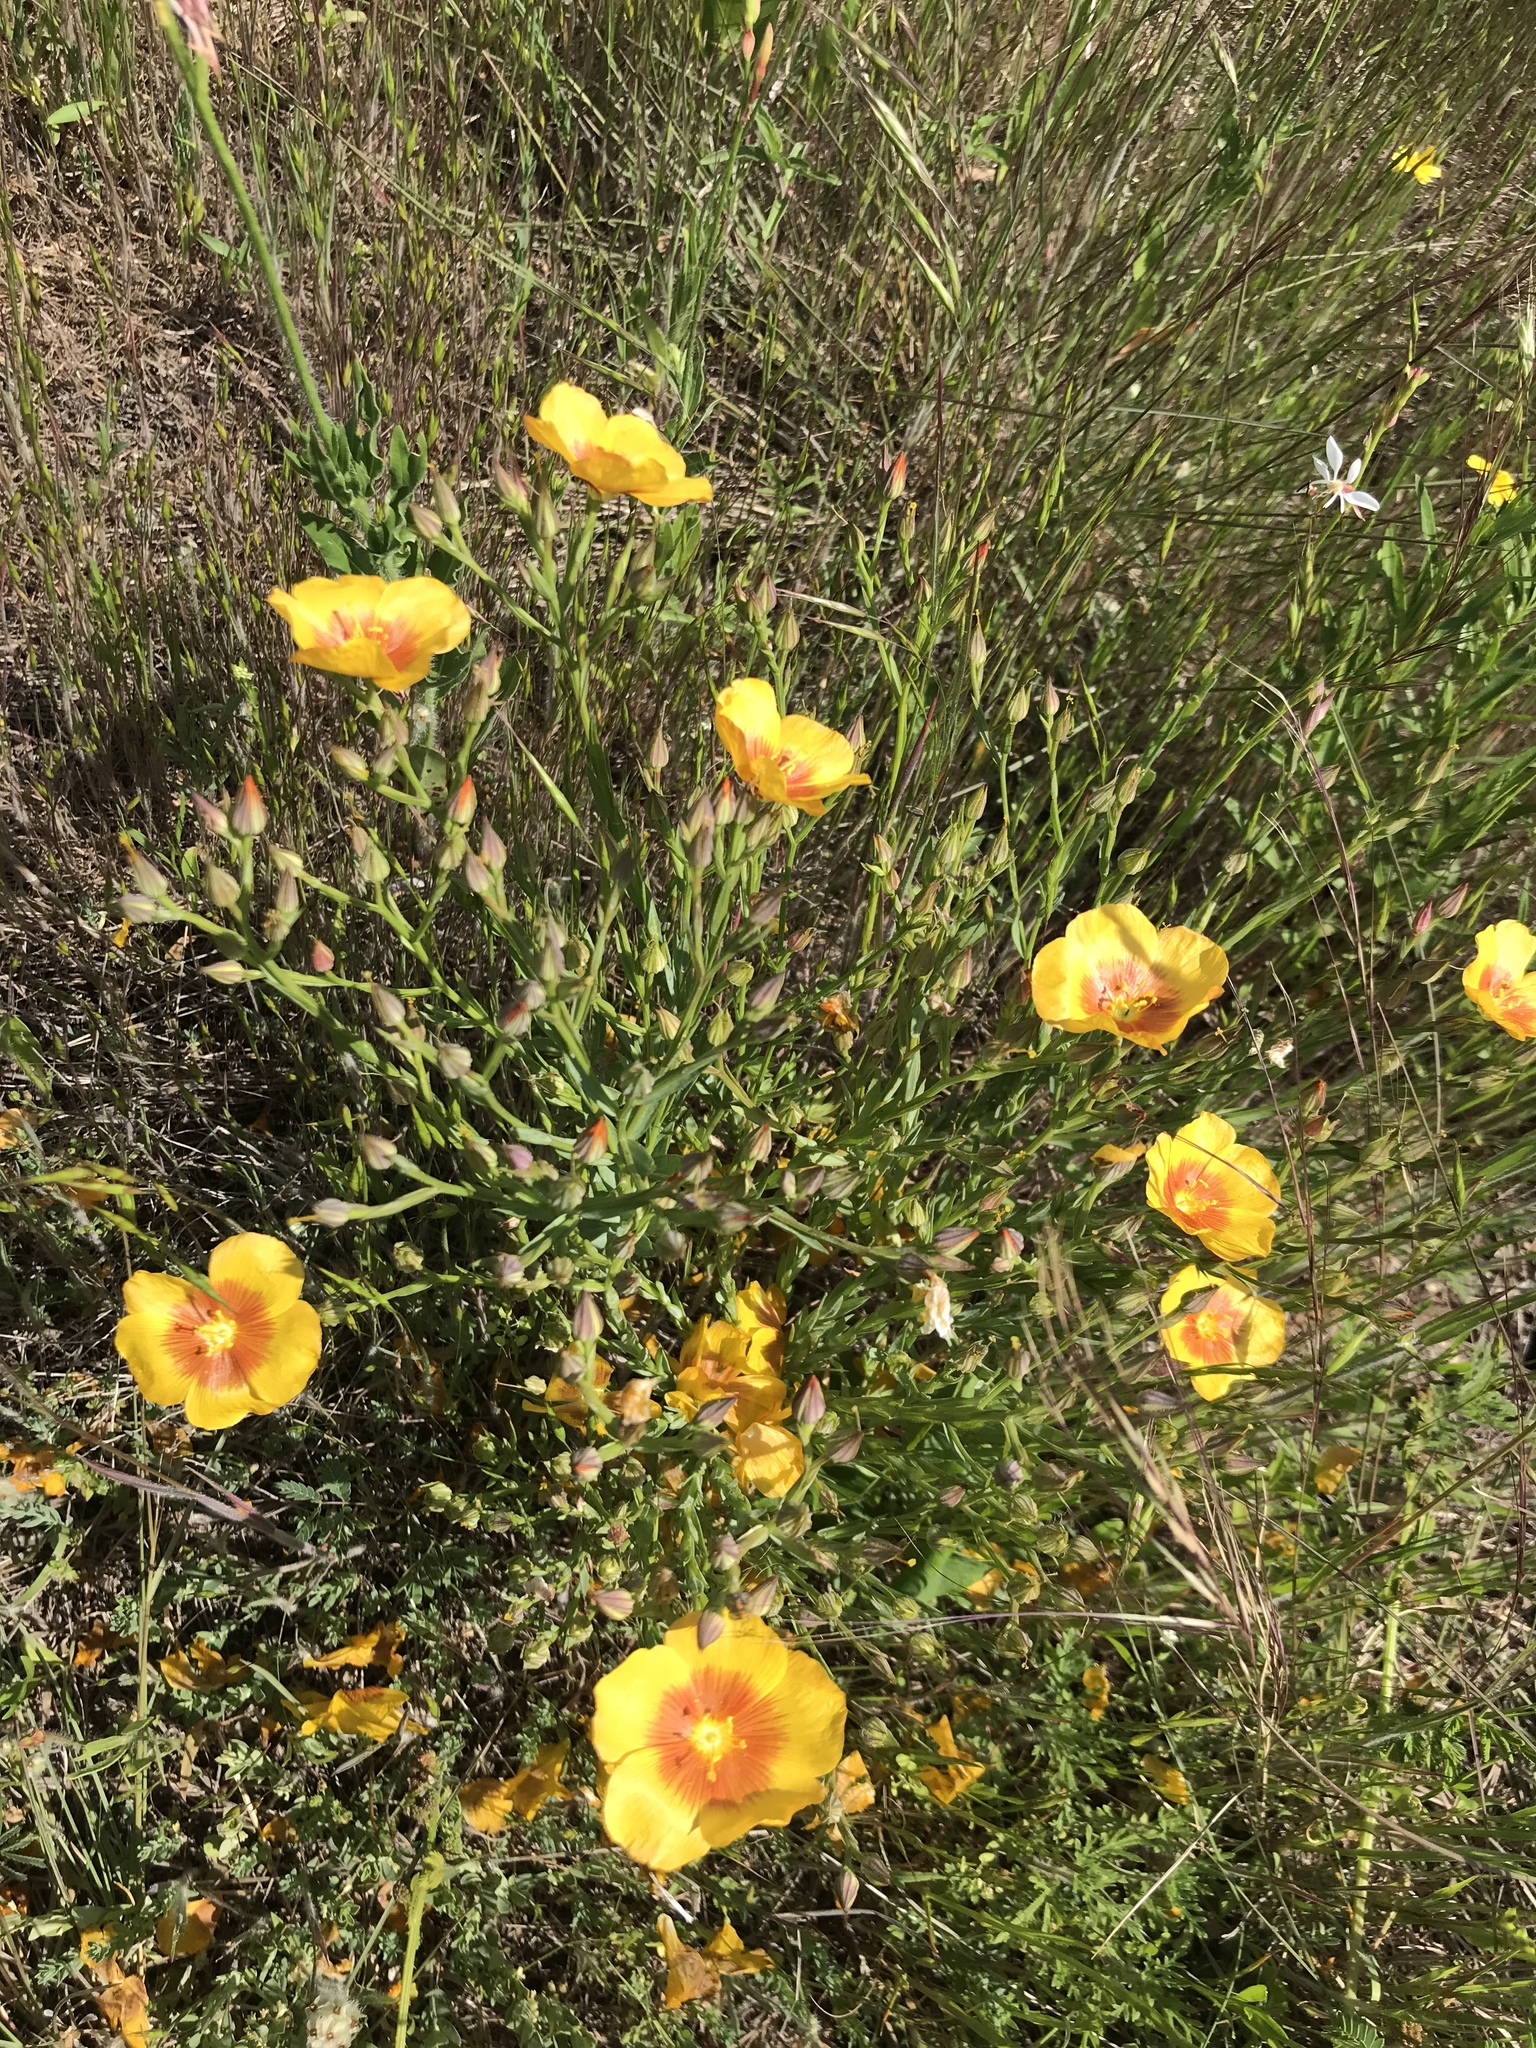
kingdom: Plantae
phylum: Tracheophyta
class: Magnoliopsida
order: Malpighiales
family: Linaceae
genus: Linum
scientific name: Linum rigidum
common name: Stiff-stem flax
